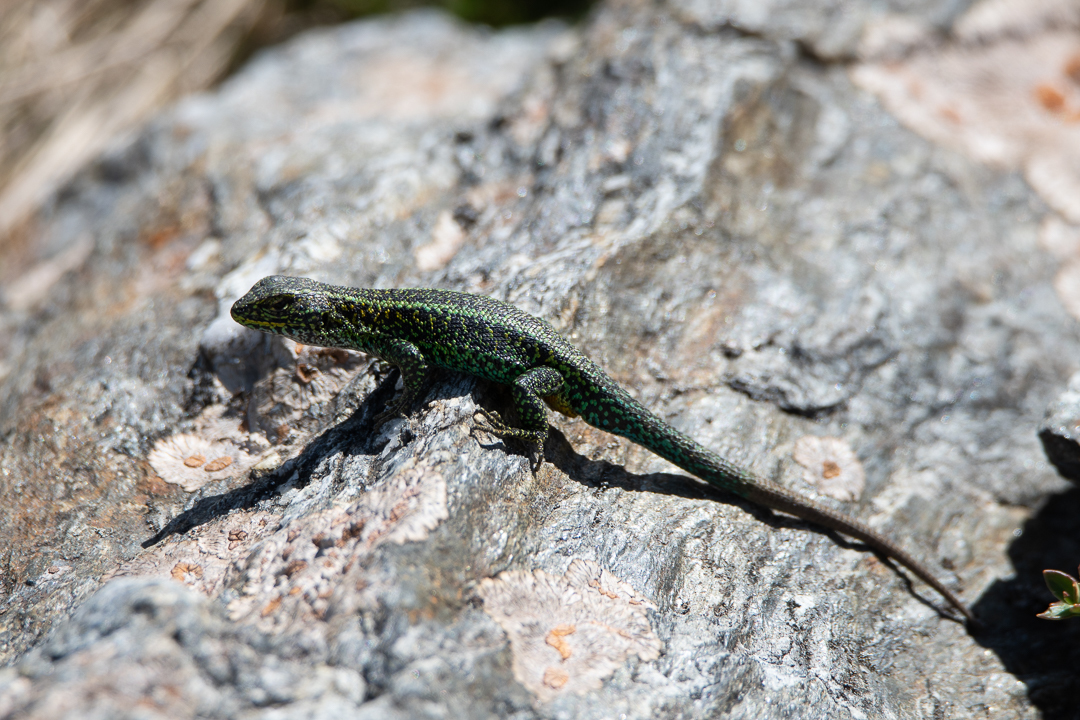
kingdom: Animalia
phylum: Chordata
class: Squamata
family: Liolaemidae
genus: Liolaemus
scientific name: Liolaemus pictus
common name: Painted tree iguana
